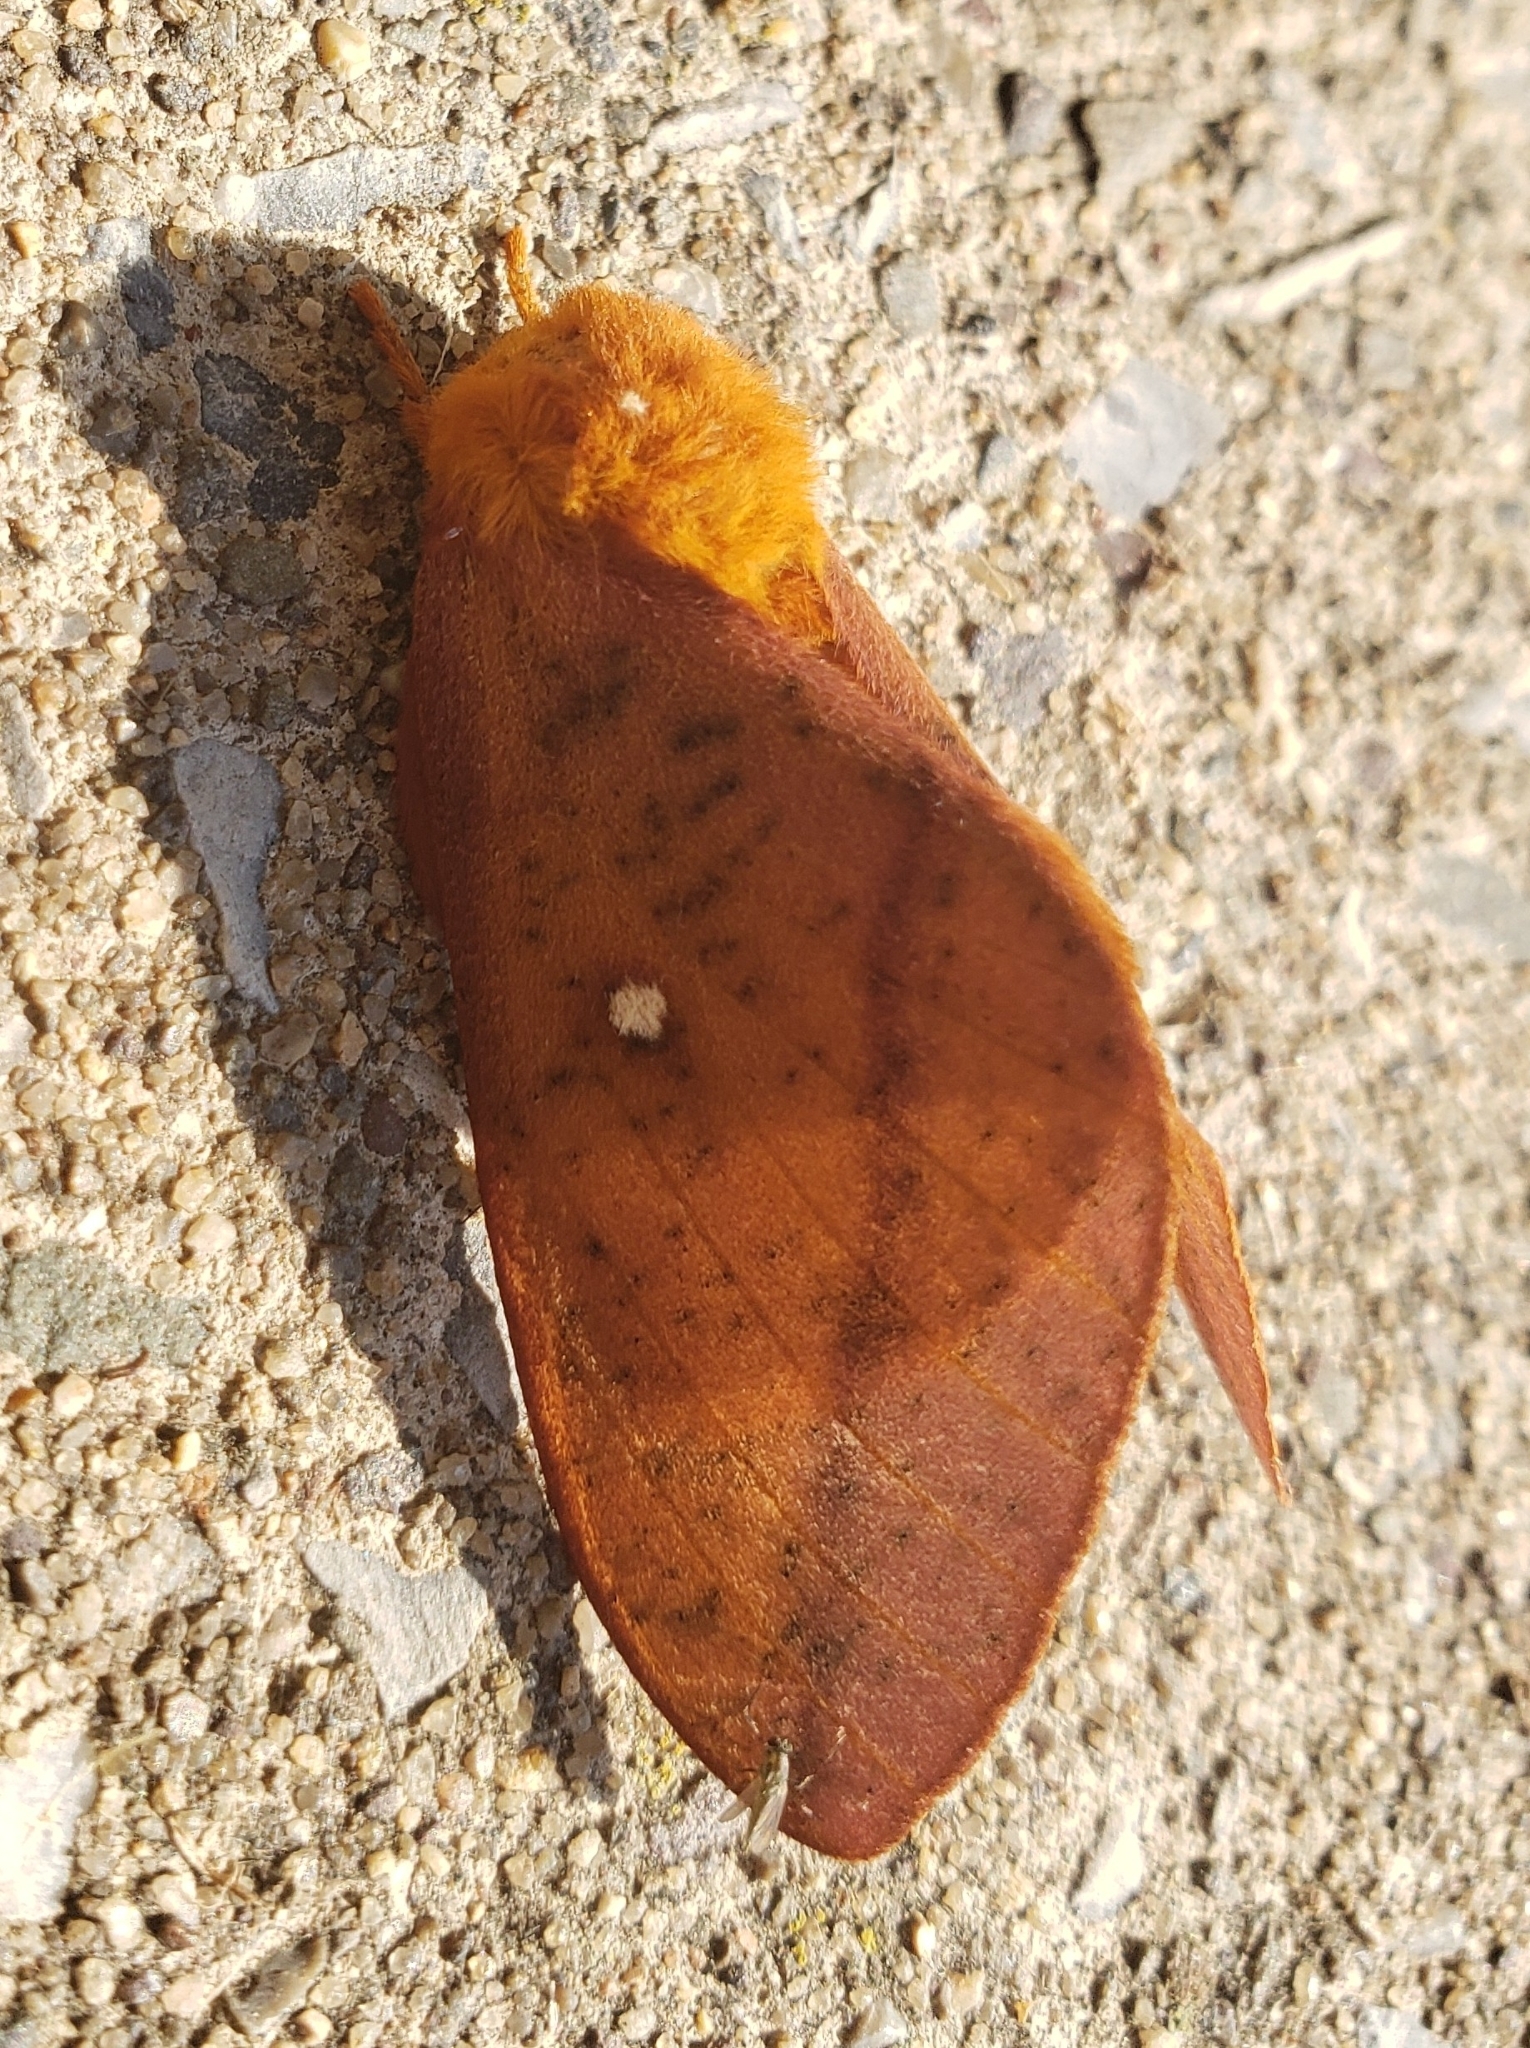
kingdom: Animalia
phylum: Arthropoda
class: Insecta
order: Lepidoptera
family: Saturniidae
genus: Anisota
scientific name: Anisota senatoria
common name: Orange-striped oakworm moth
